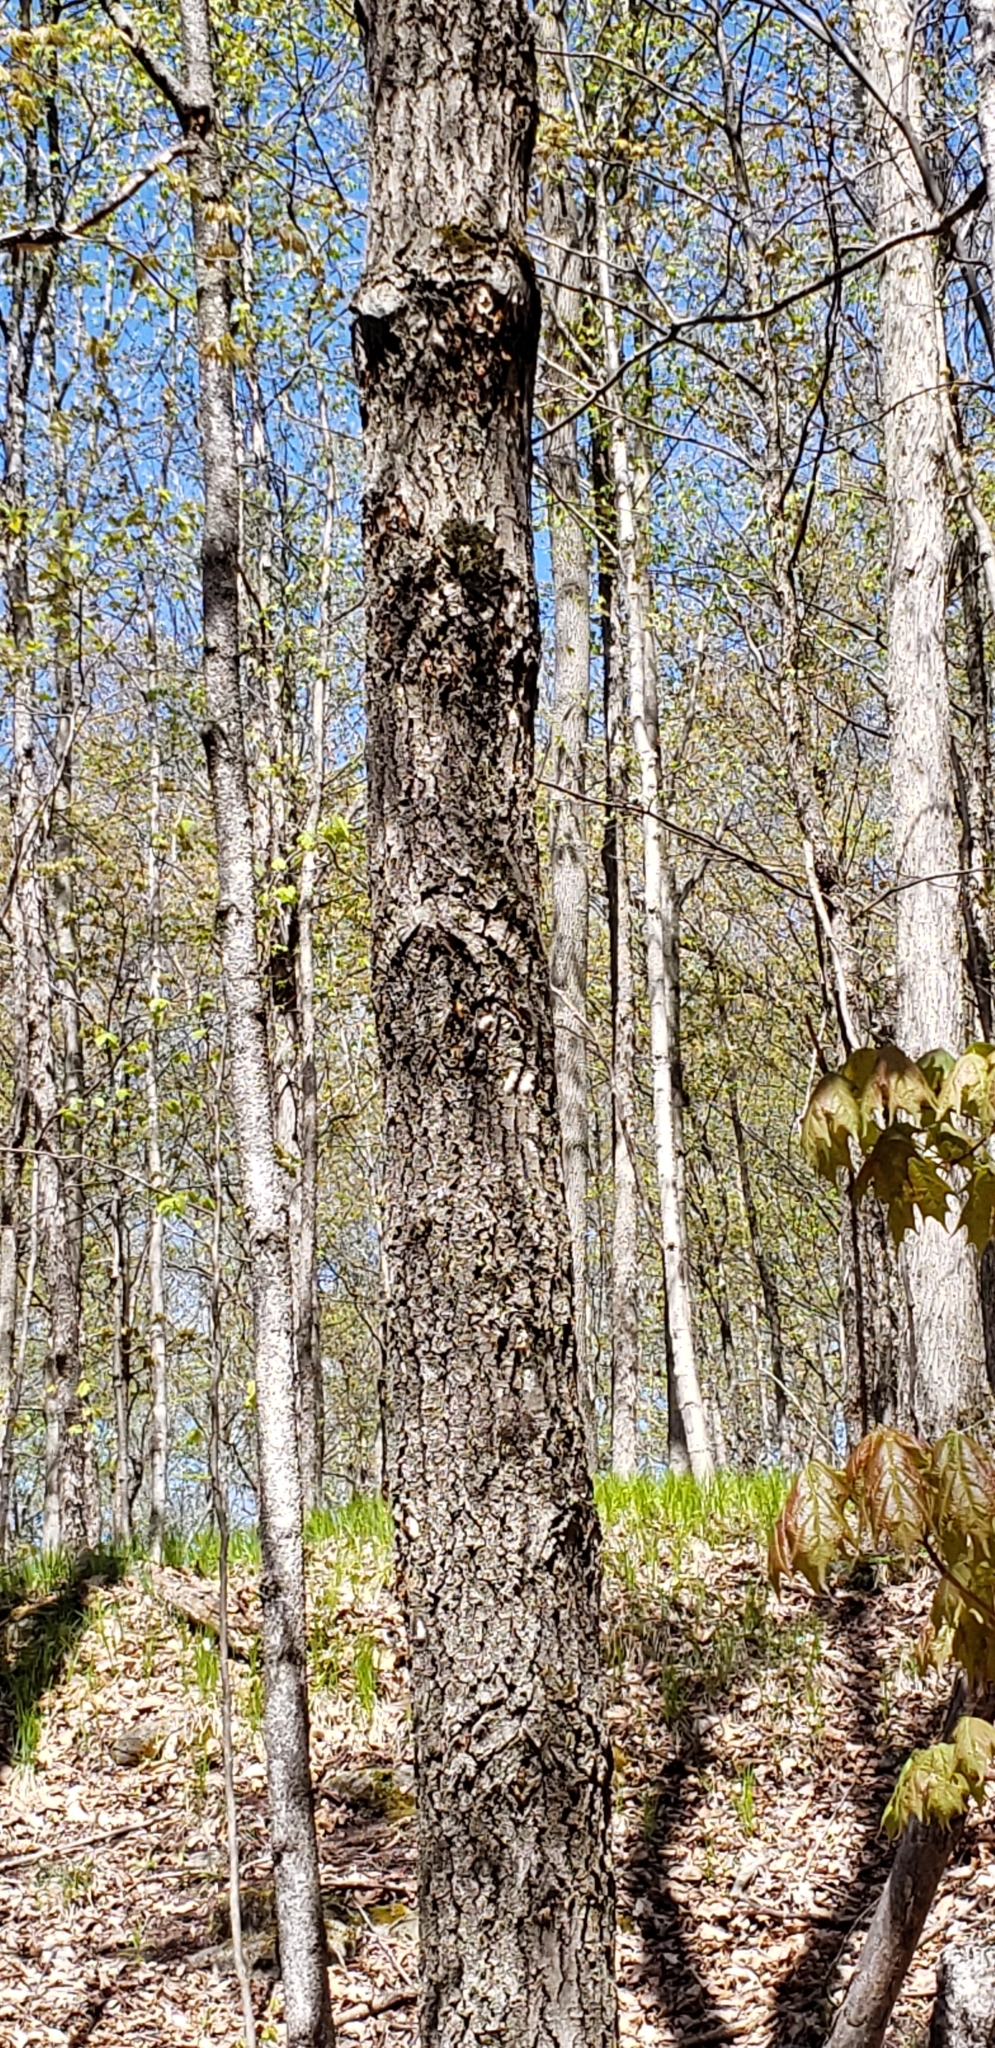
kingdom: Animalia
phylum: Arthropoda
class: Insecta
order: Lepidoptera
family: Erebidae
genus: Lymantria
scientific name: Lymantria dispar
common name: Gypsy moth
